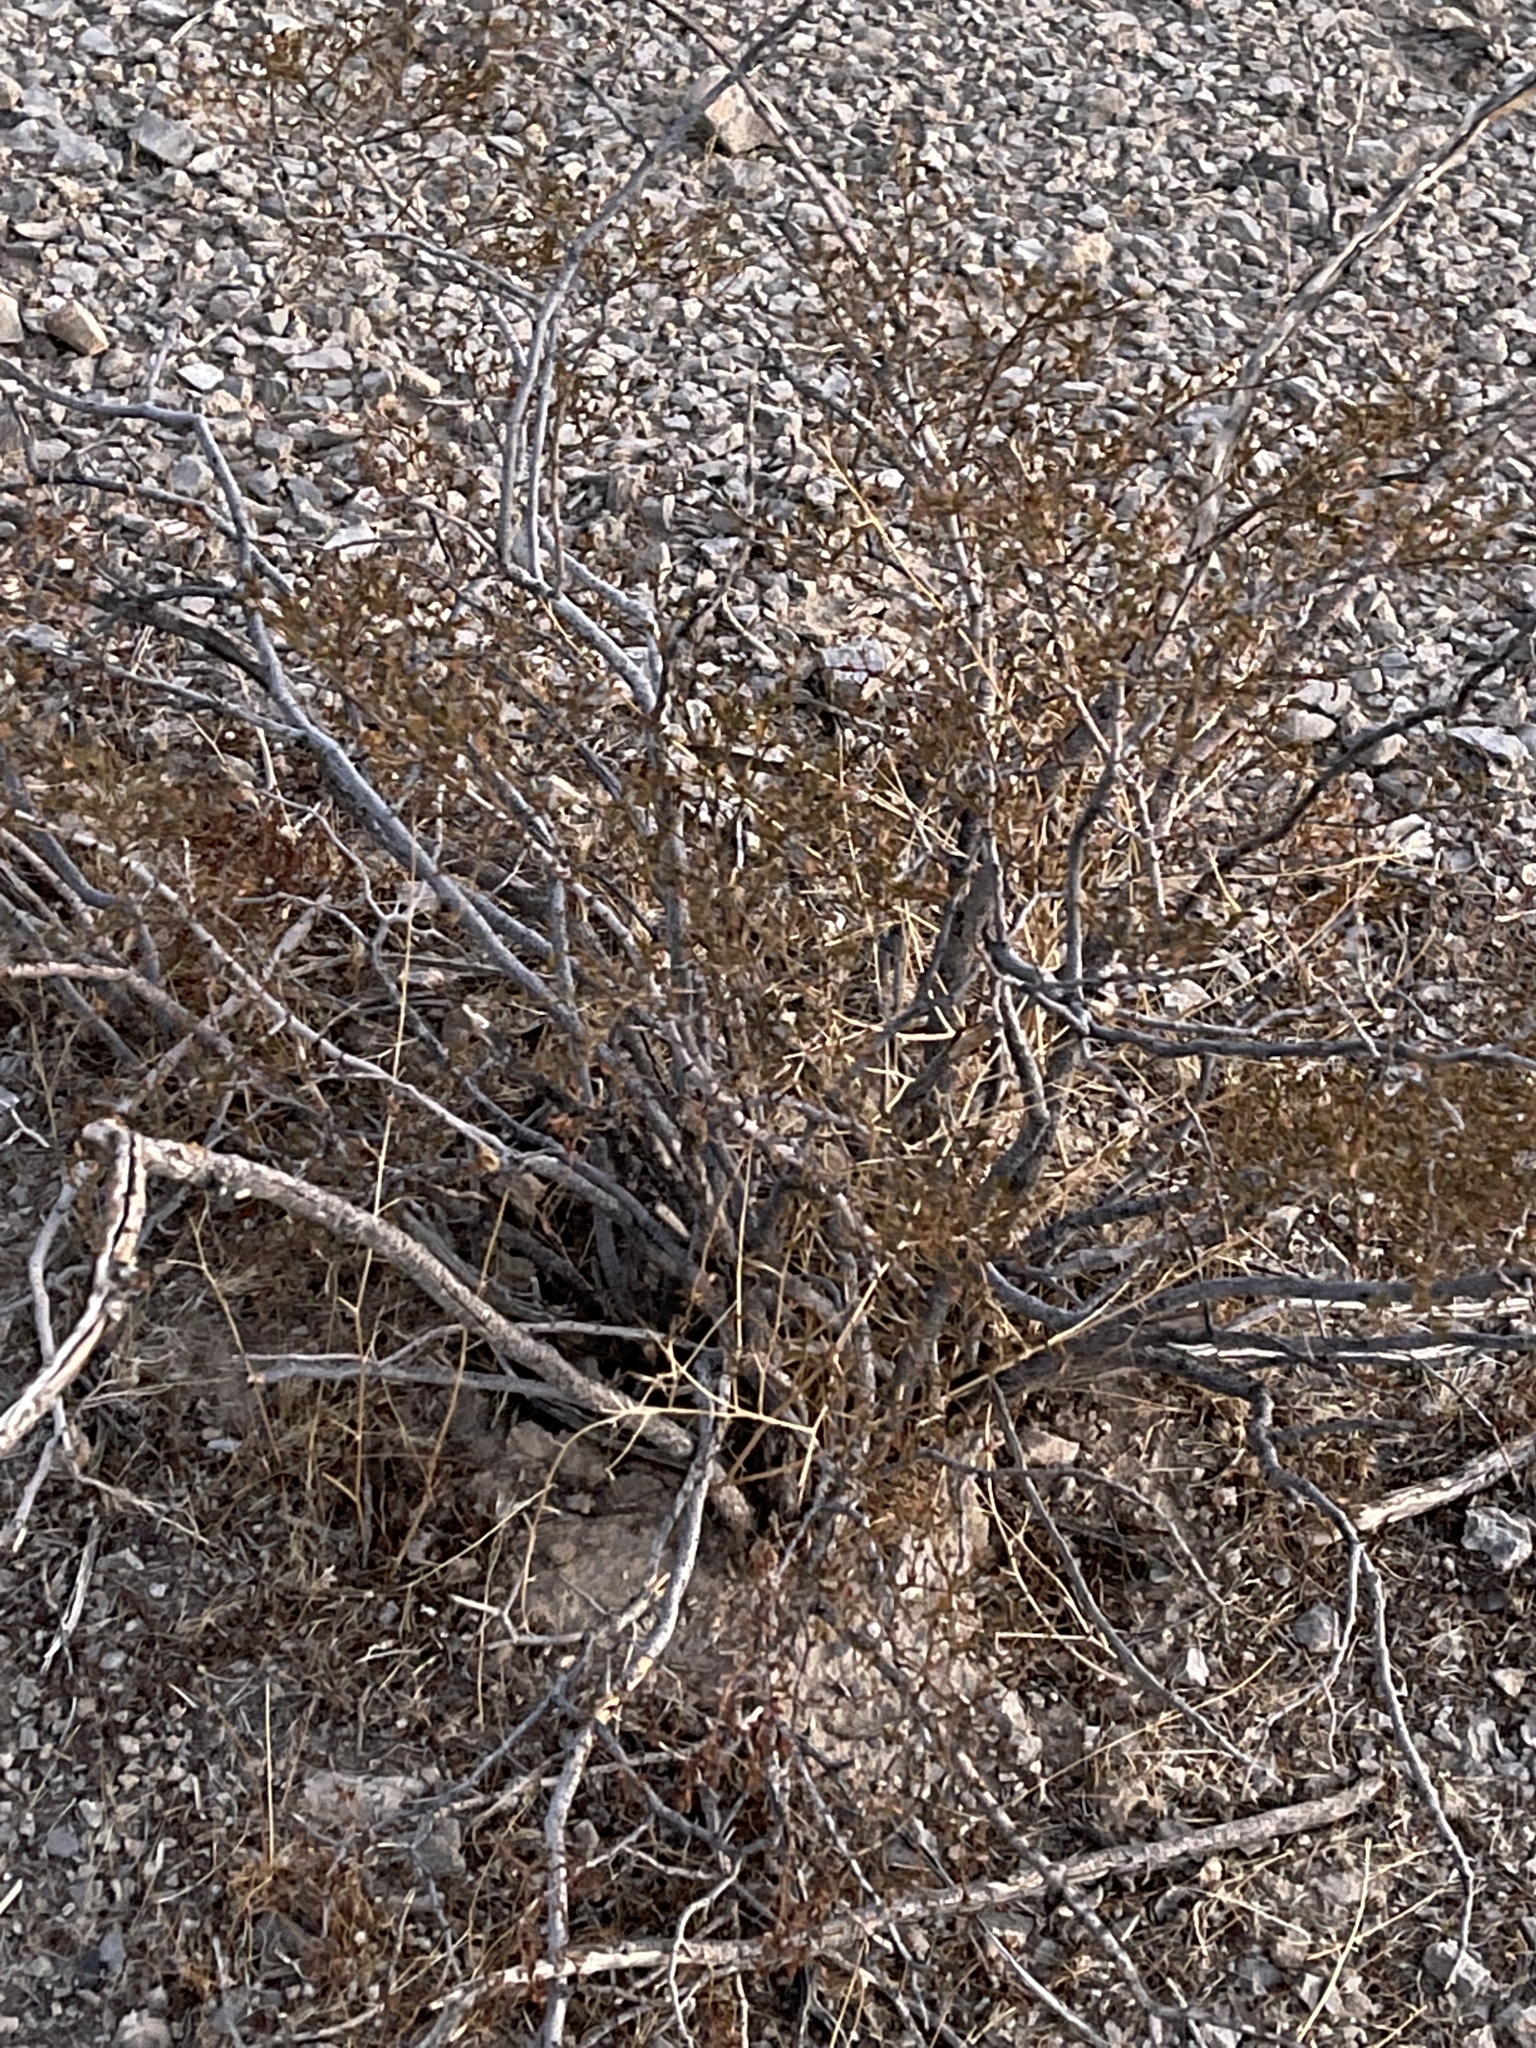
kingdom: Plantae
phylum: Tracheophyta
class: Magnoliopsida
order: Zygophyllales
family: Zygophyllaceae
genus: Larrea
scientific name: Larrea tridentata
